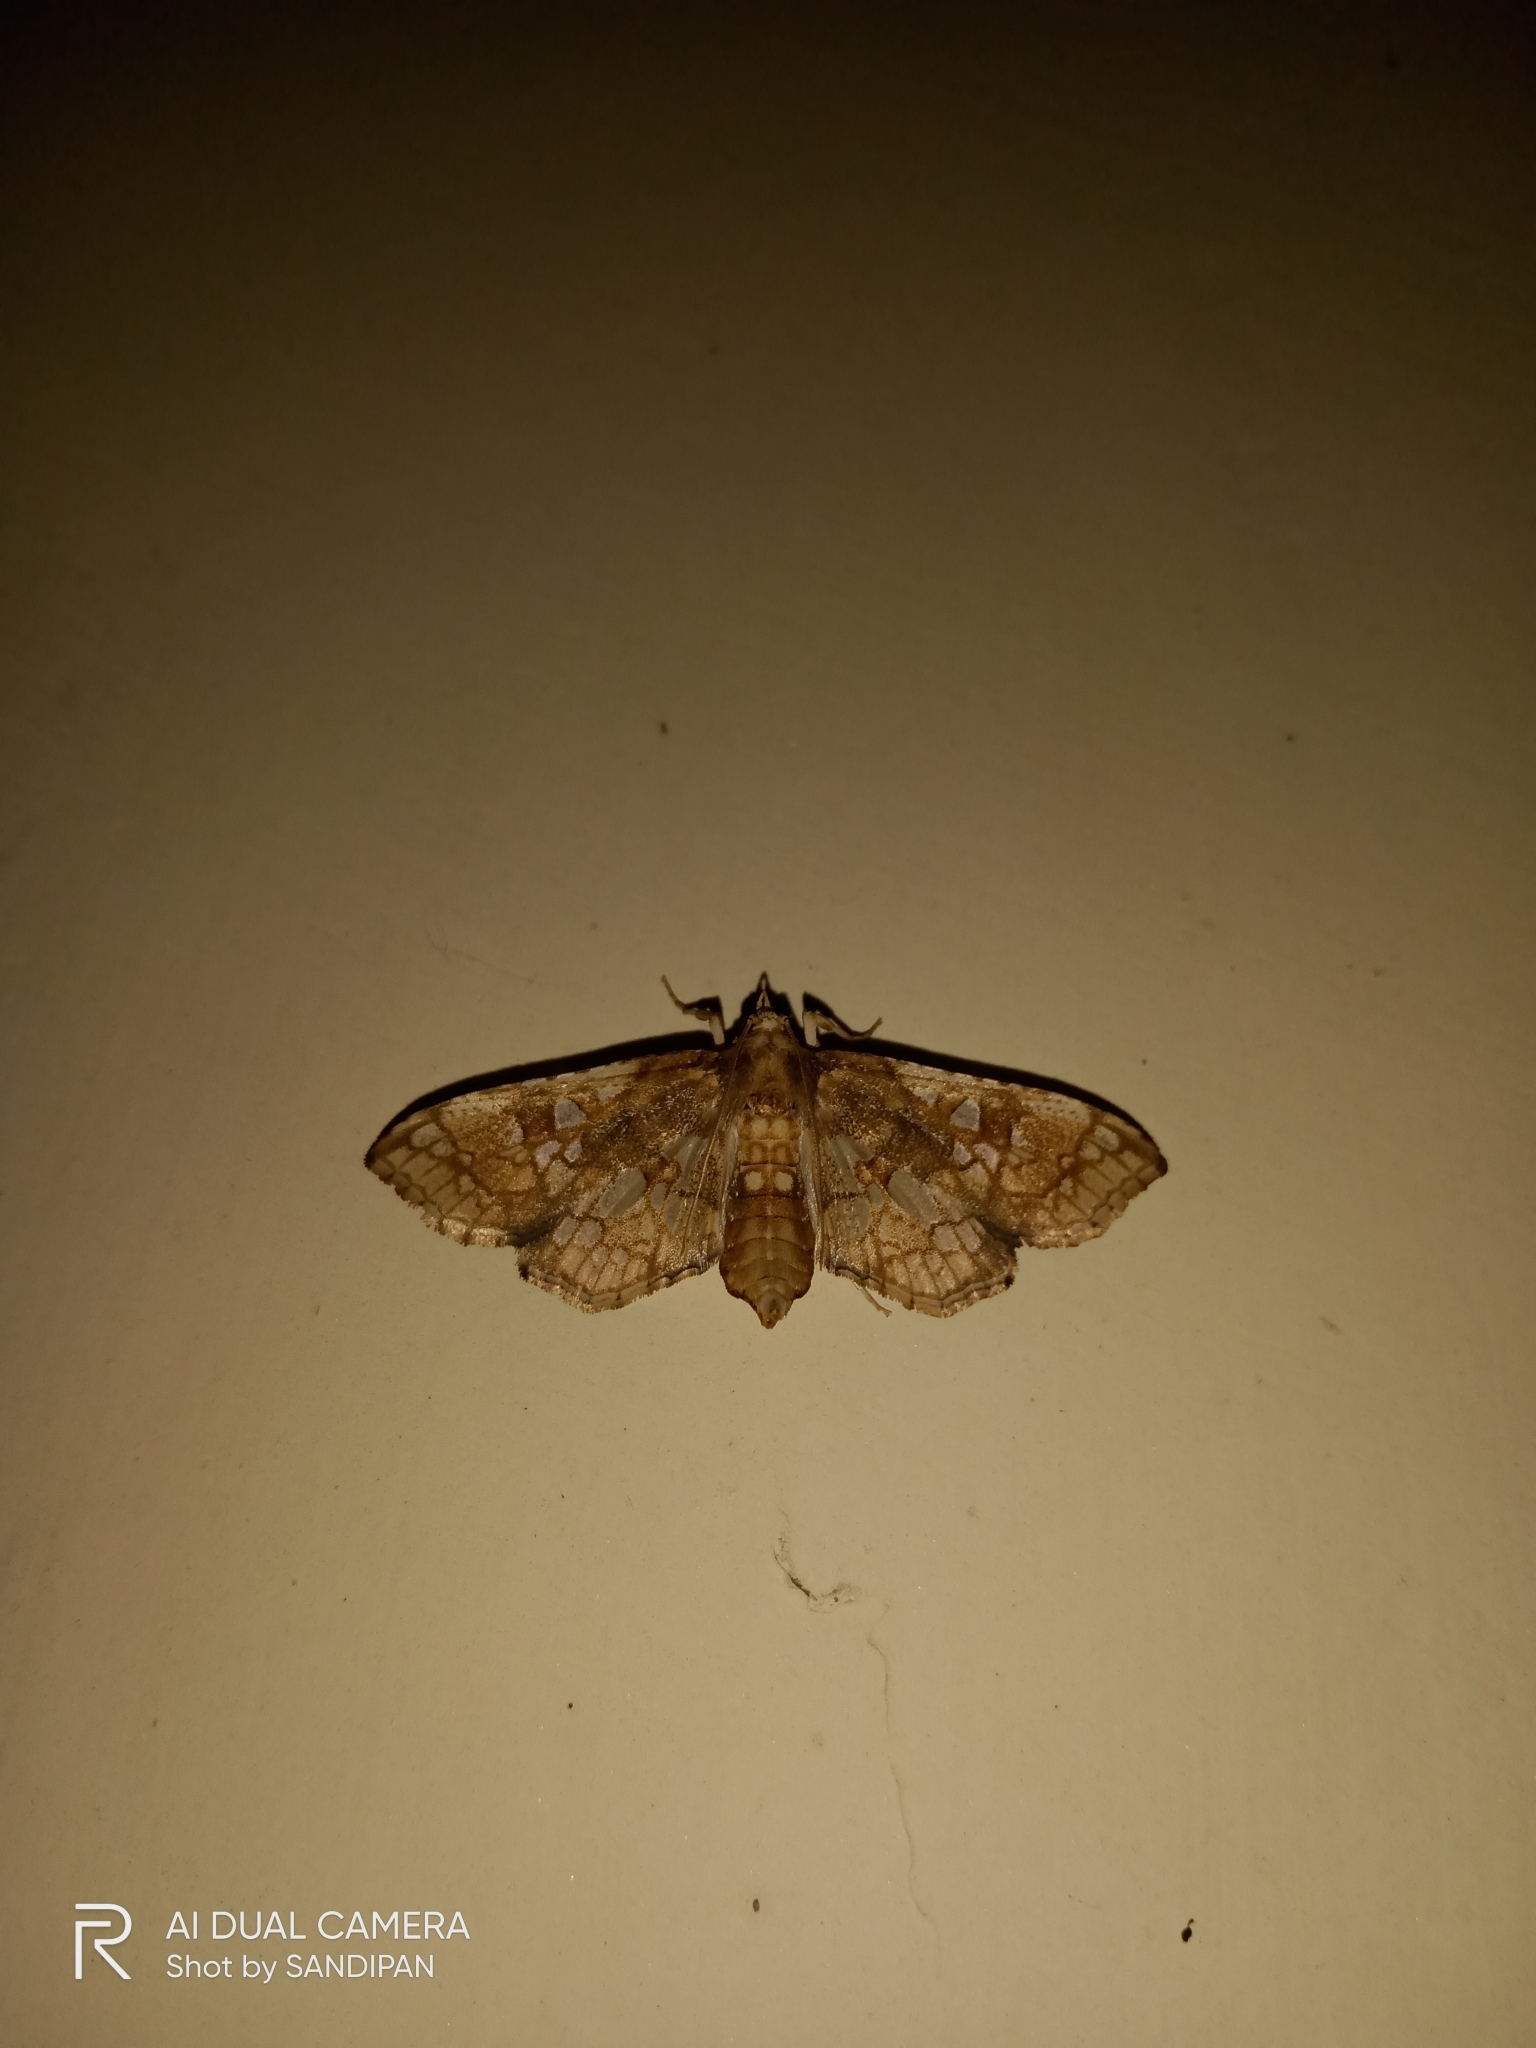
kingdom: Animalia
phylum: Arthropoda
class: Insecta
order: Lepidoptera
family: Crambidae
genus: Omphisa
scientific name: Omphisa anastomosalis
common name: Sweetpotato vineborer
